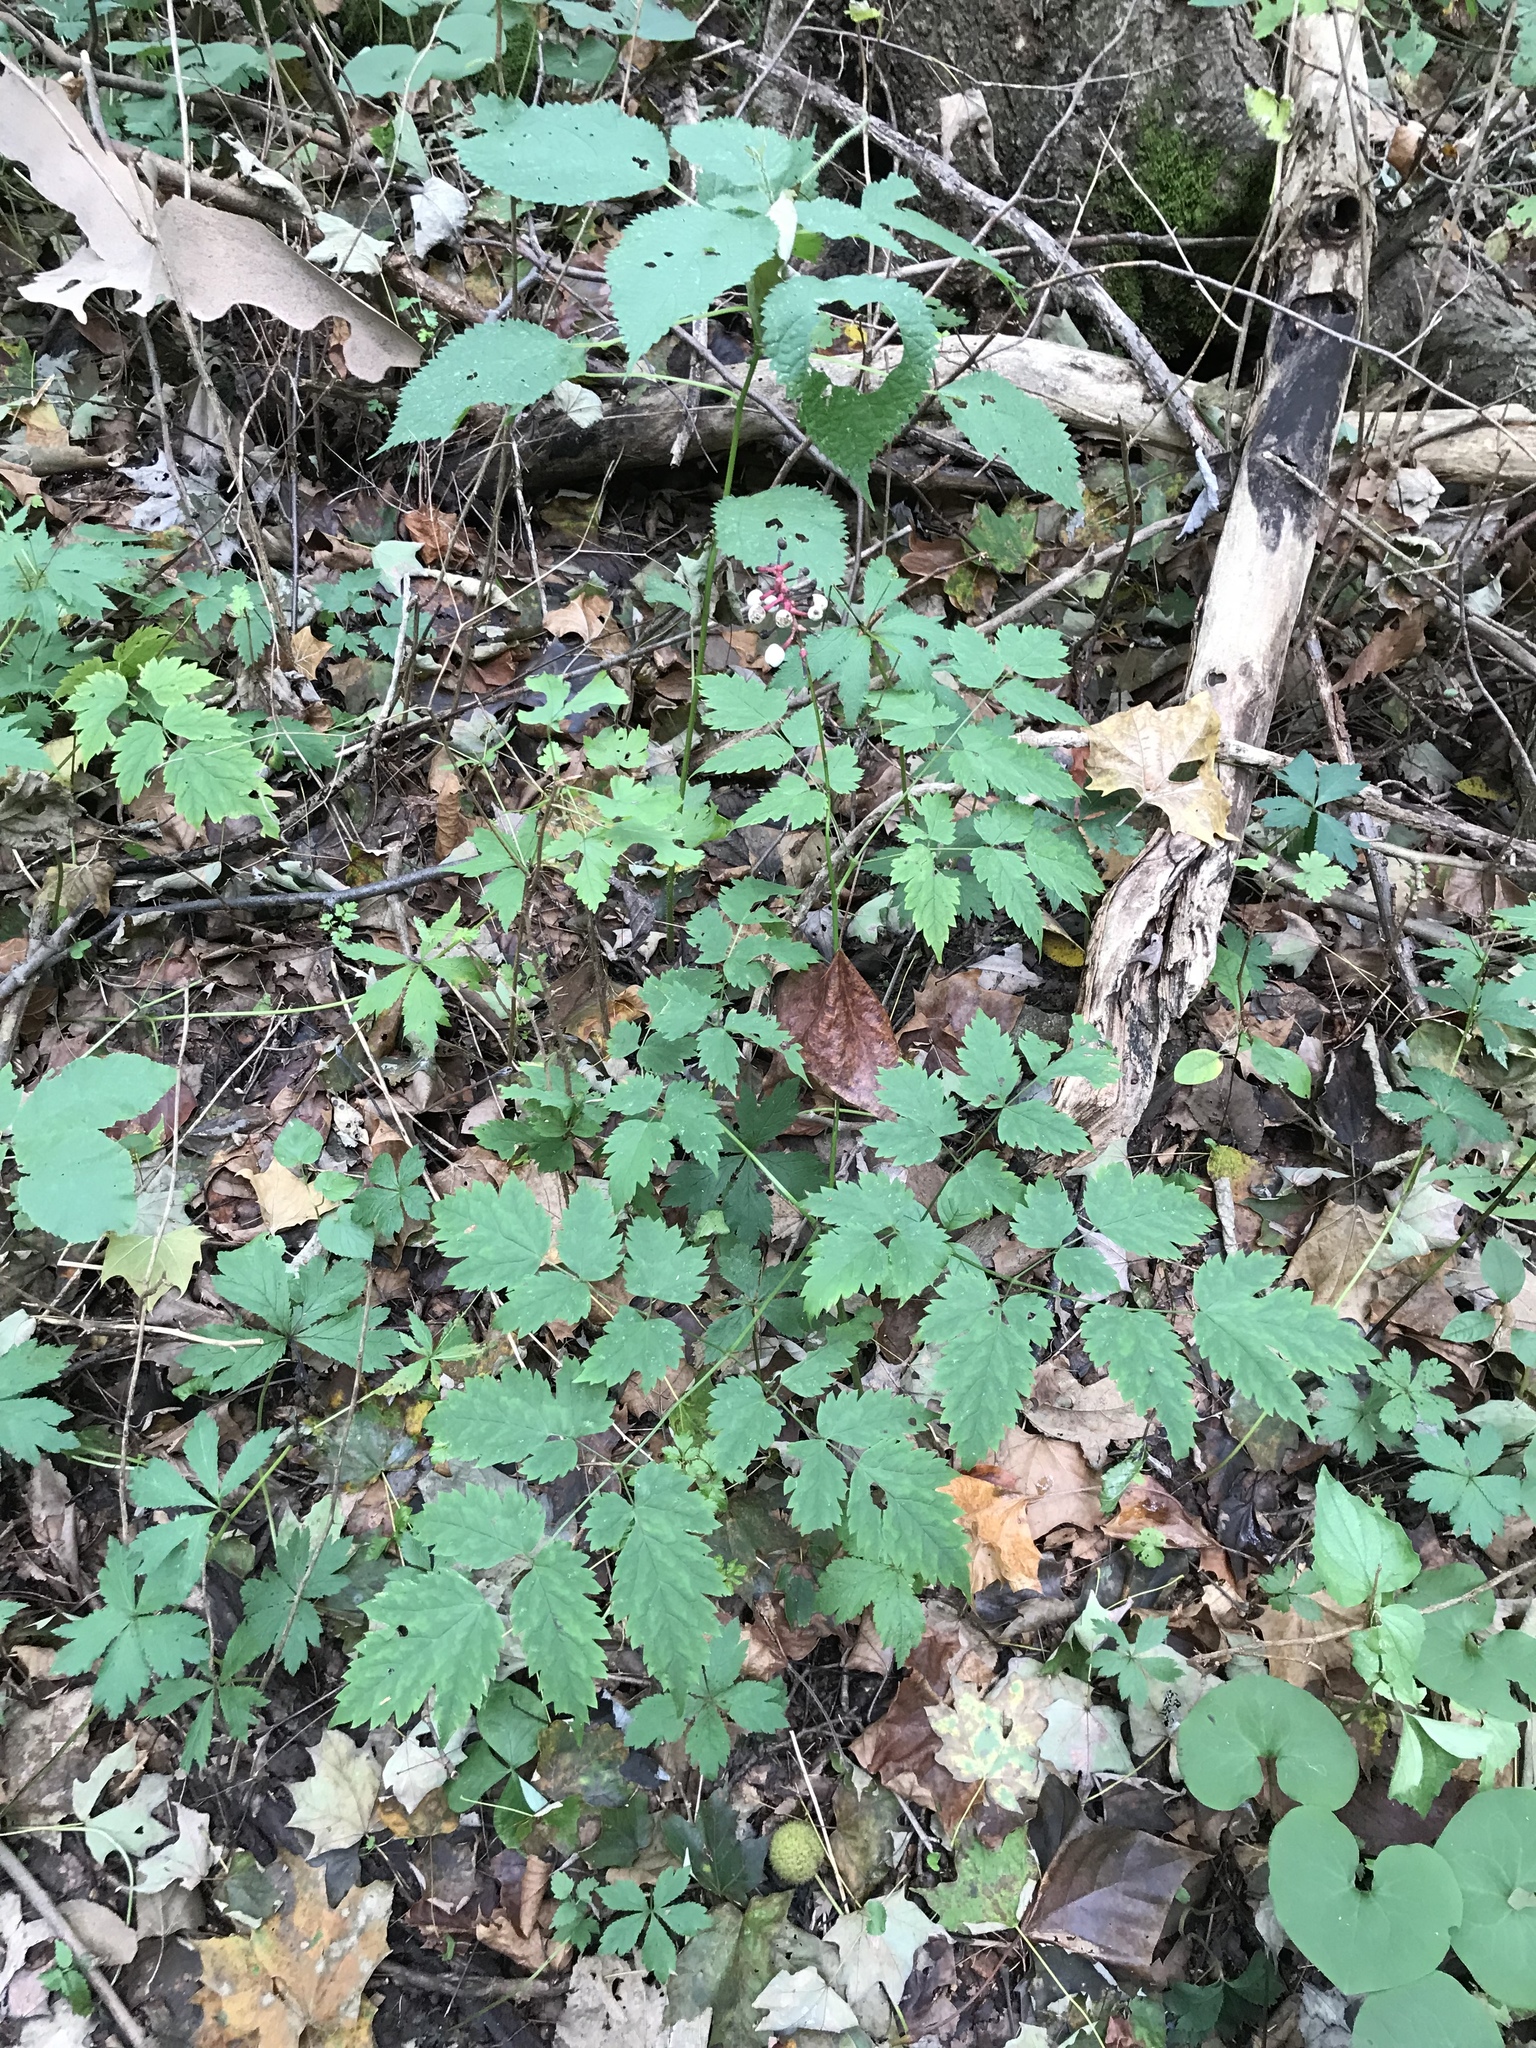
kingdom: Plantae
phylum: Tracheophyta
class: Magnoliopsida
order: Ranunculales
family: Ranunculaceae
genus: Actaea
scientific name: Actaea pachypoda
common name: Doll's-eyes
